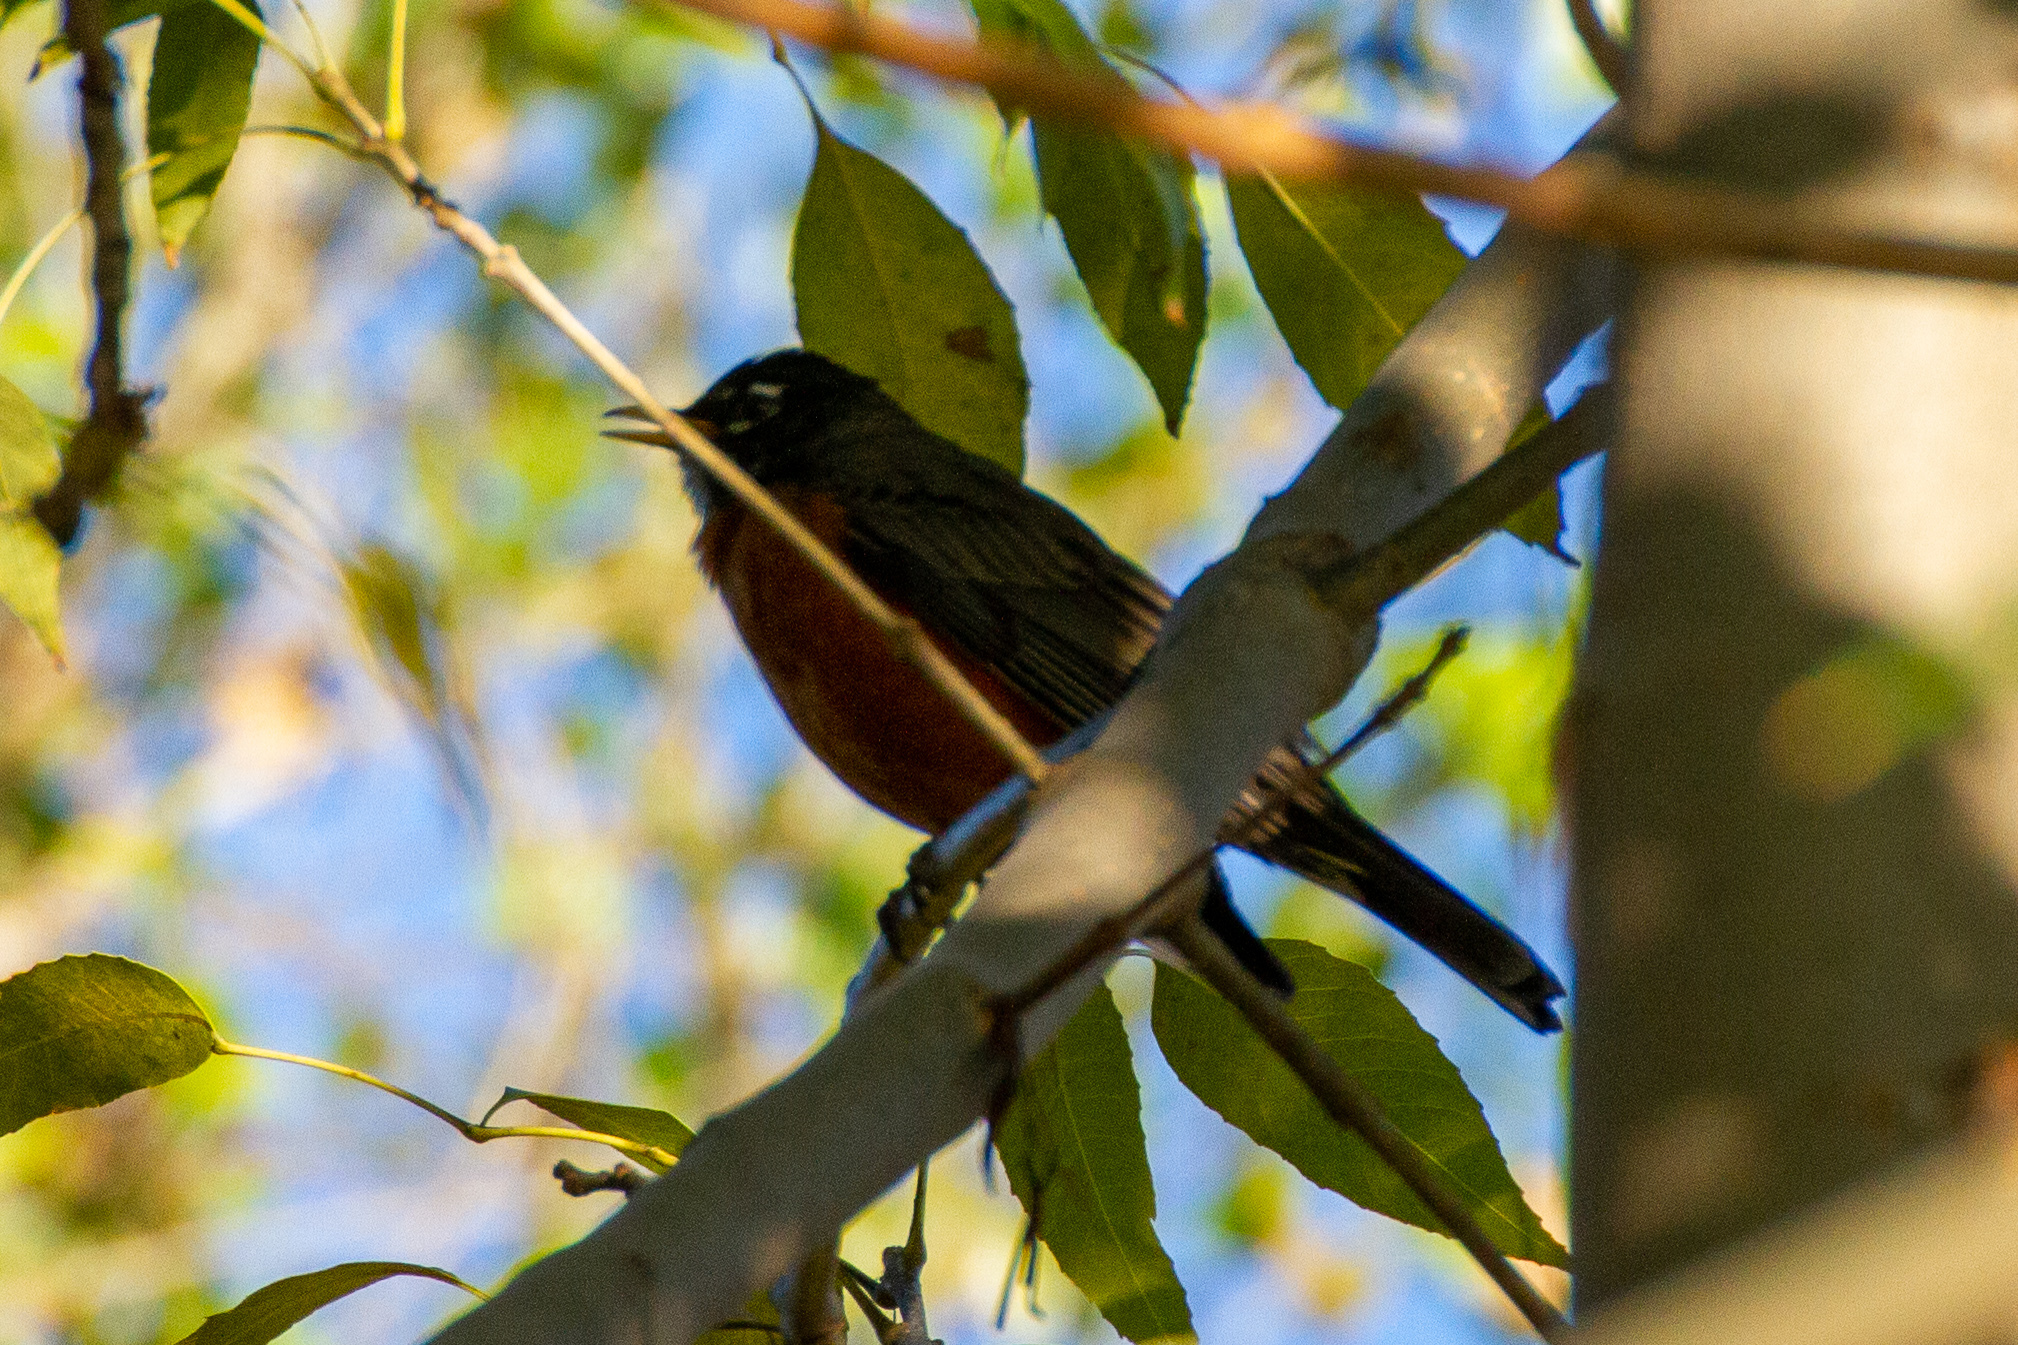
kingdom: Animalia
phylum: Chordata
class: Aves
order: Passeriformes
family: Turdidae
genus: Turdus
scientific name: Turdus migratorius
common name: American robin
